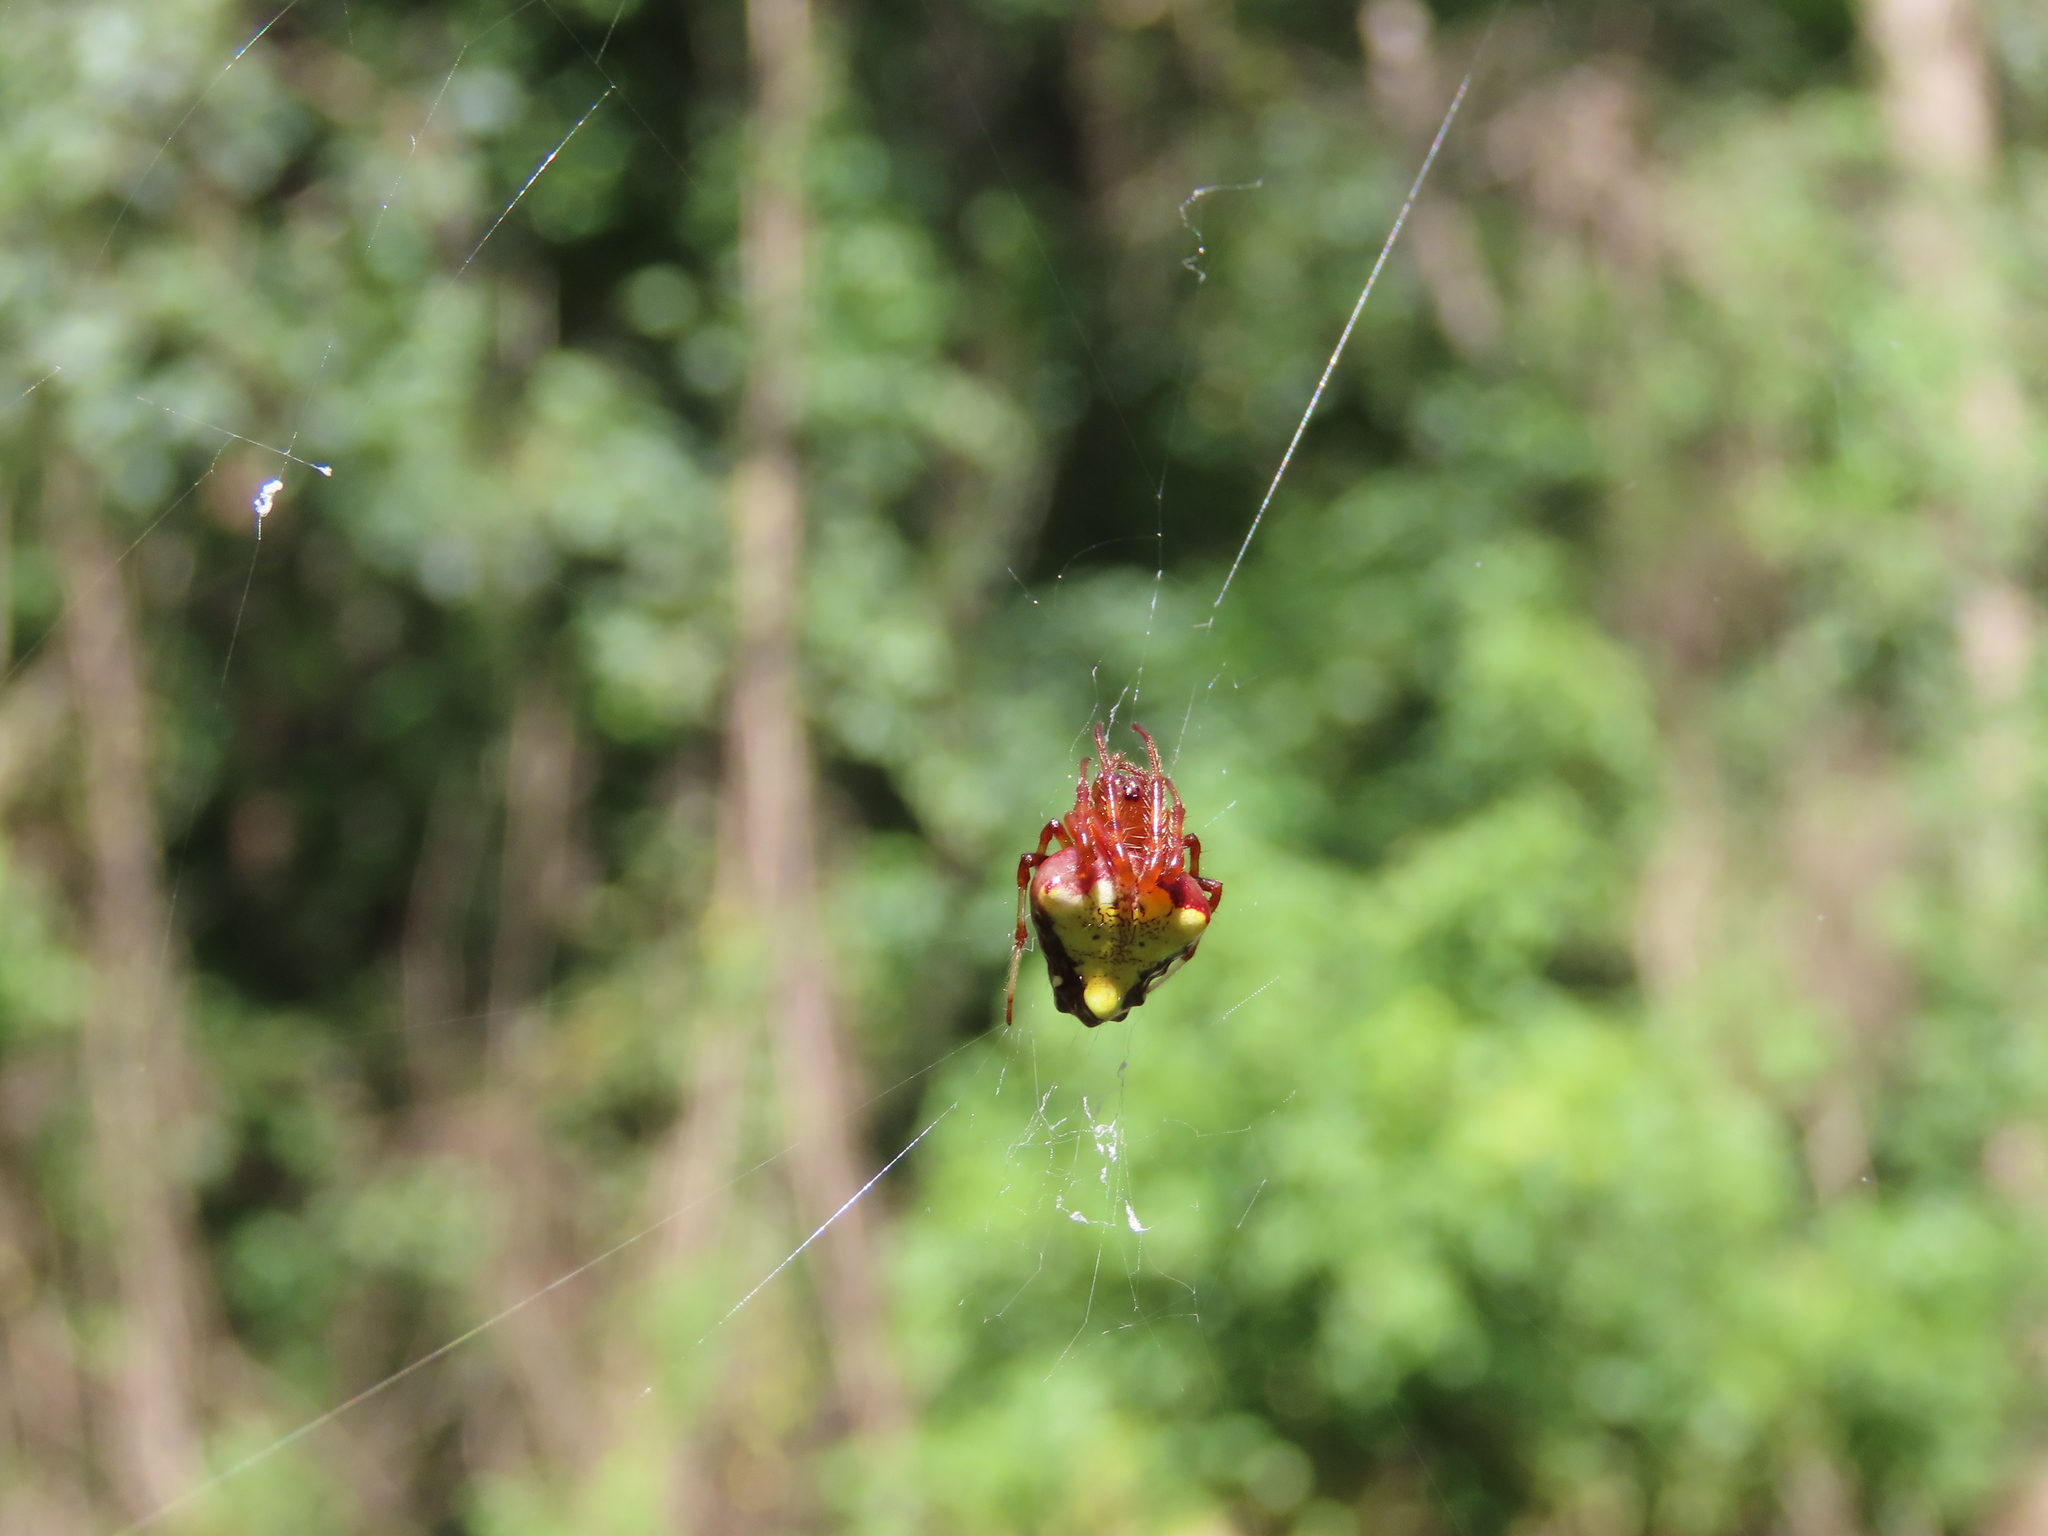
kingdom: Animalia
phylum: Arthropoda
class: Arachnida
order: Araneae
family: Araneidae
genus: Verrucosa
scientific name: Verrucosa arenata
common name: Orb weavers
